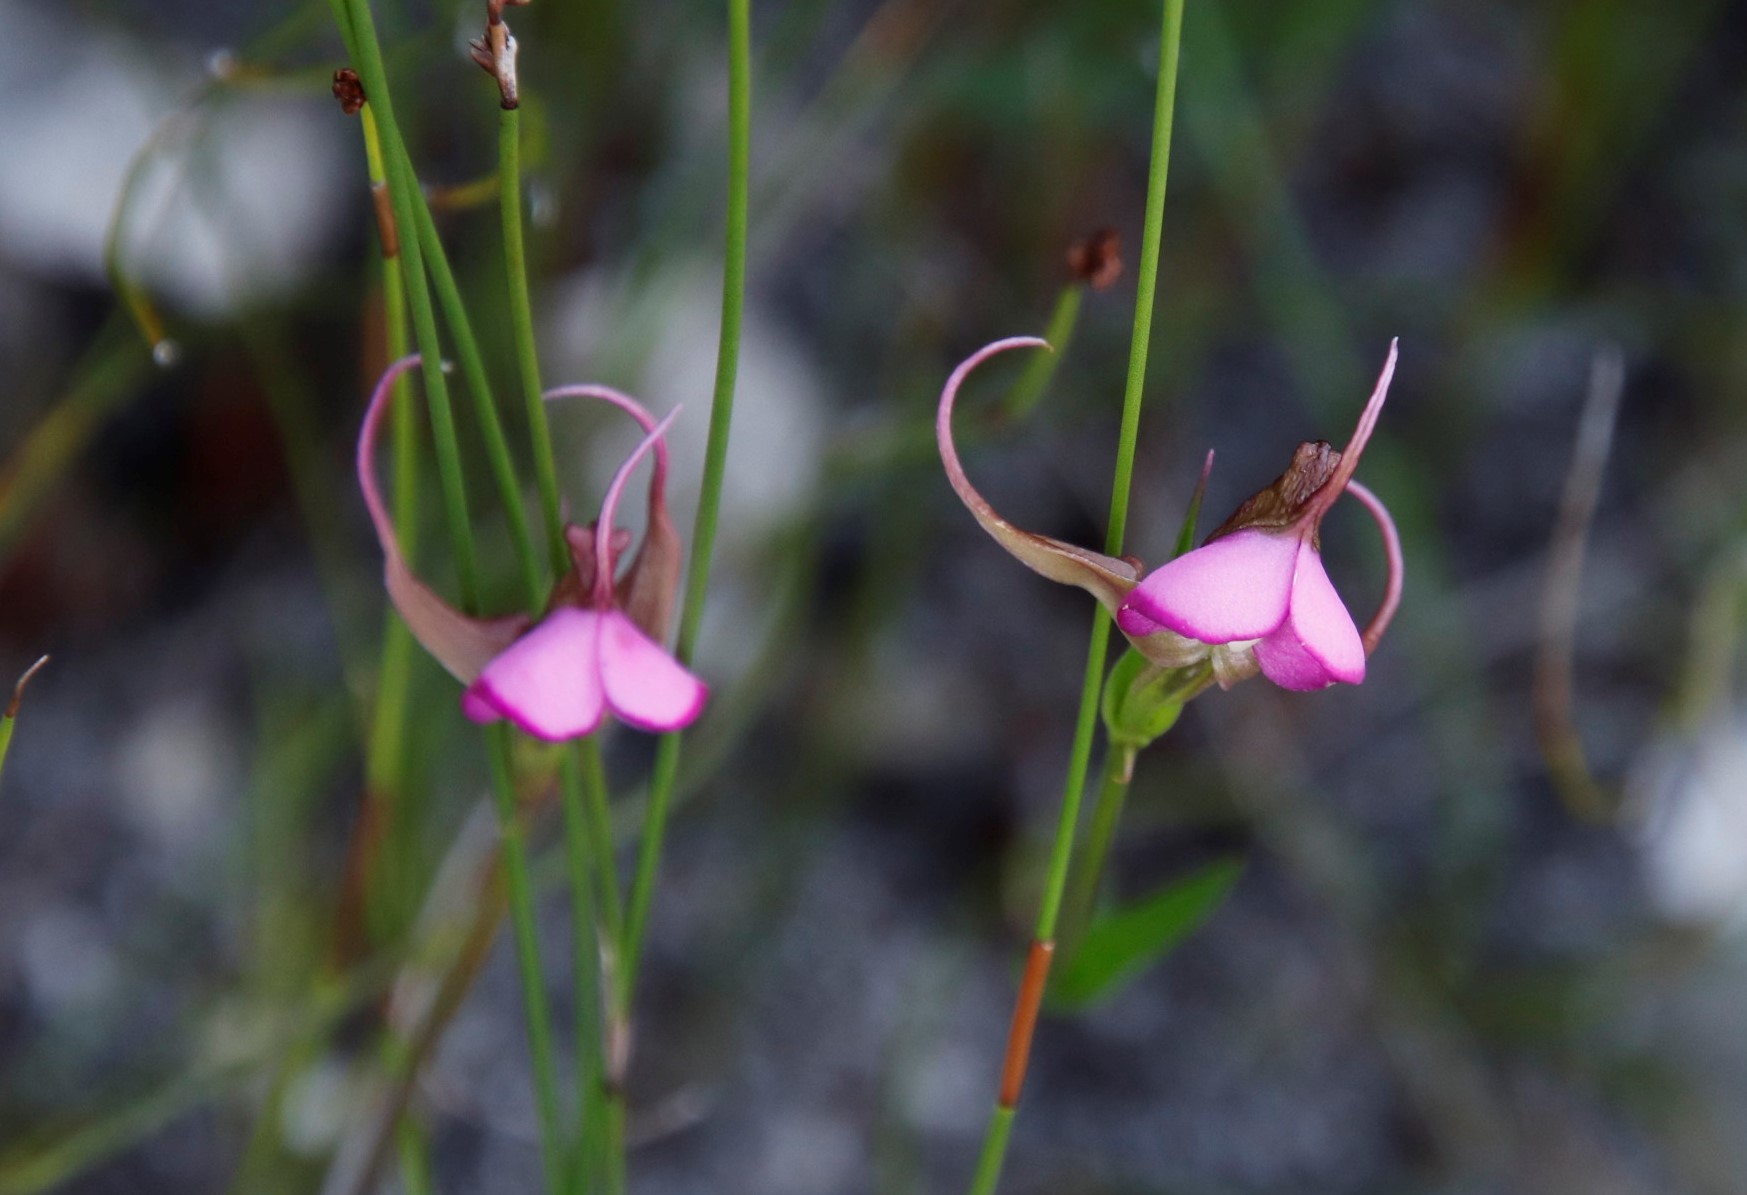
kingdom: Plantae
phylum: Tracheophyta
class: Liliopsida
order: Asparagales
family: Orchidaceae
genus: Disperis
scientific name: Disperis capensis
